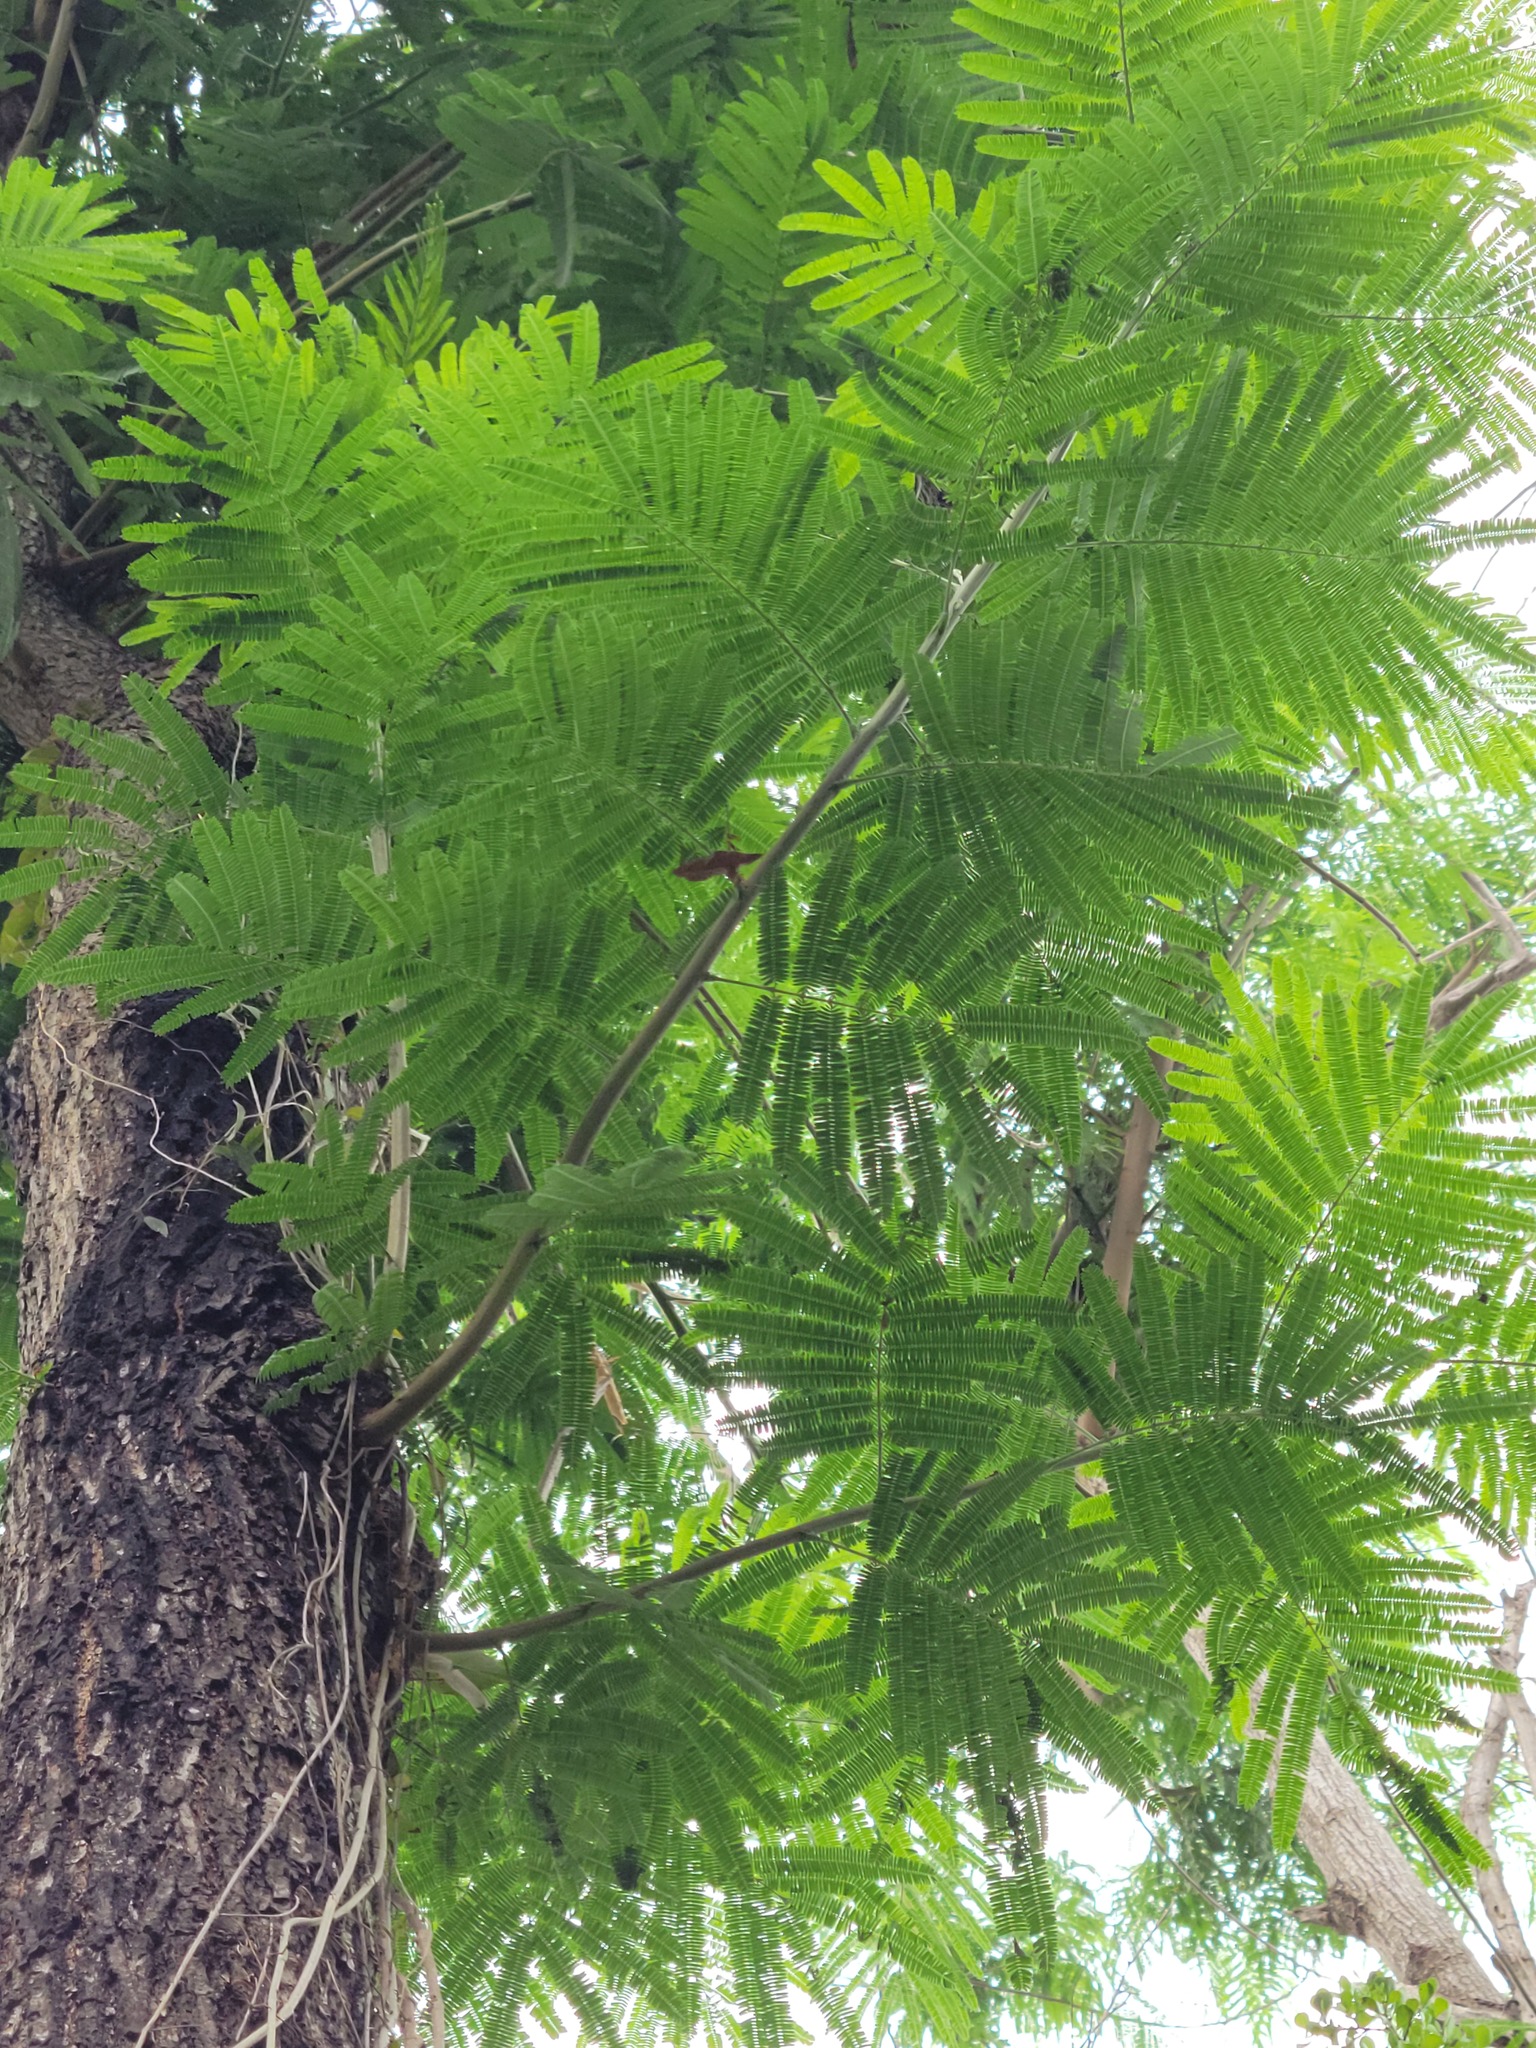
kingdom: Plantae
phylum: Tracheophyta
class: Magnoliopsida
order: Fabales
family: Fabaceae
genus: Leucaena
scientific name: Leucaena pulverulenta
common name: Great leadtree
